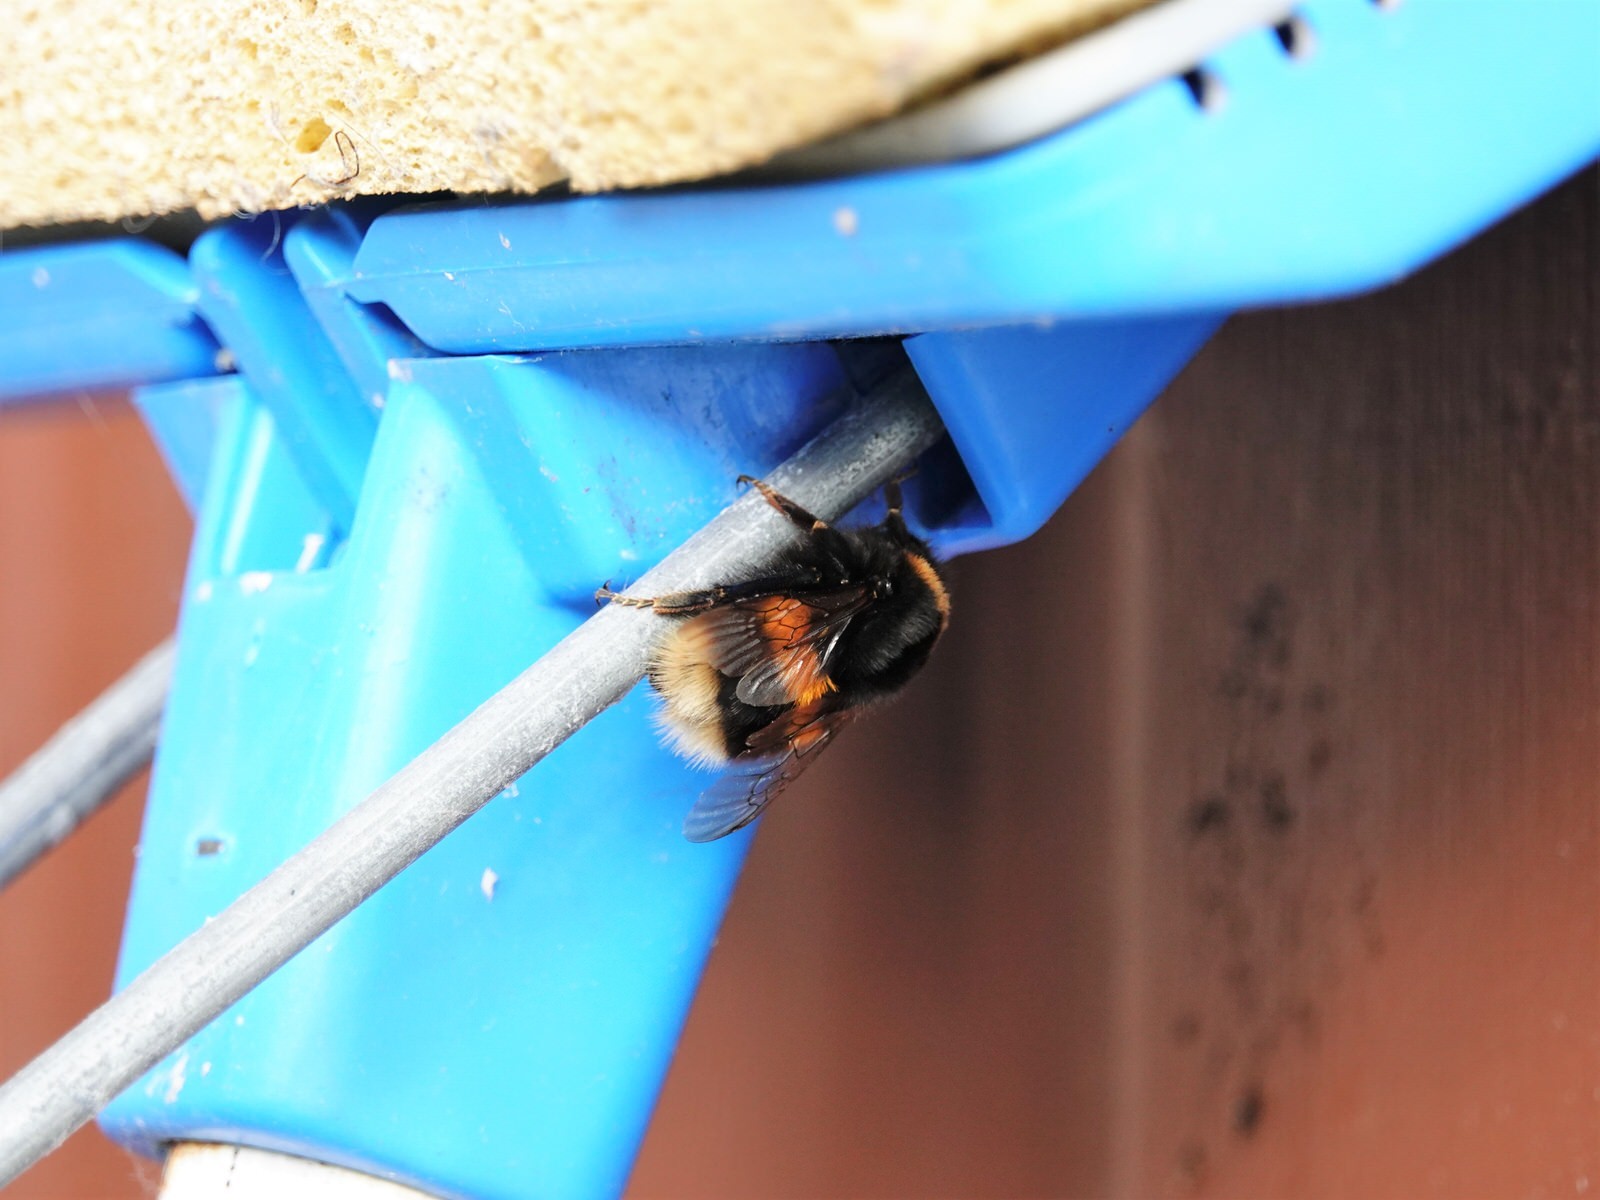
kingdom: Animalia
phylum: Arthropoda
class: Insecta
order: Hymenoptera
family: Apidae
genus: Bombus
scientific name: Bombus terrestris
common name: Buff-tailed bumblebee
